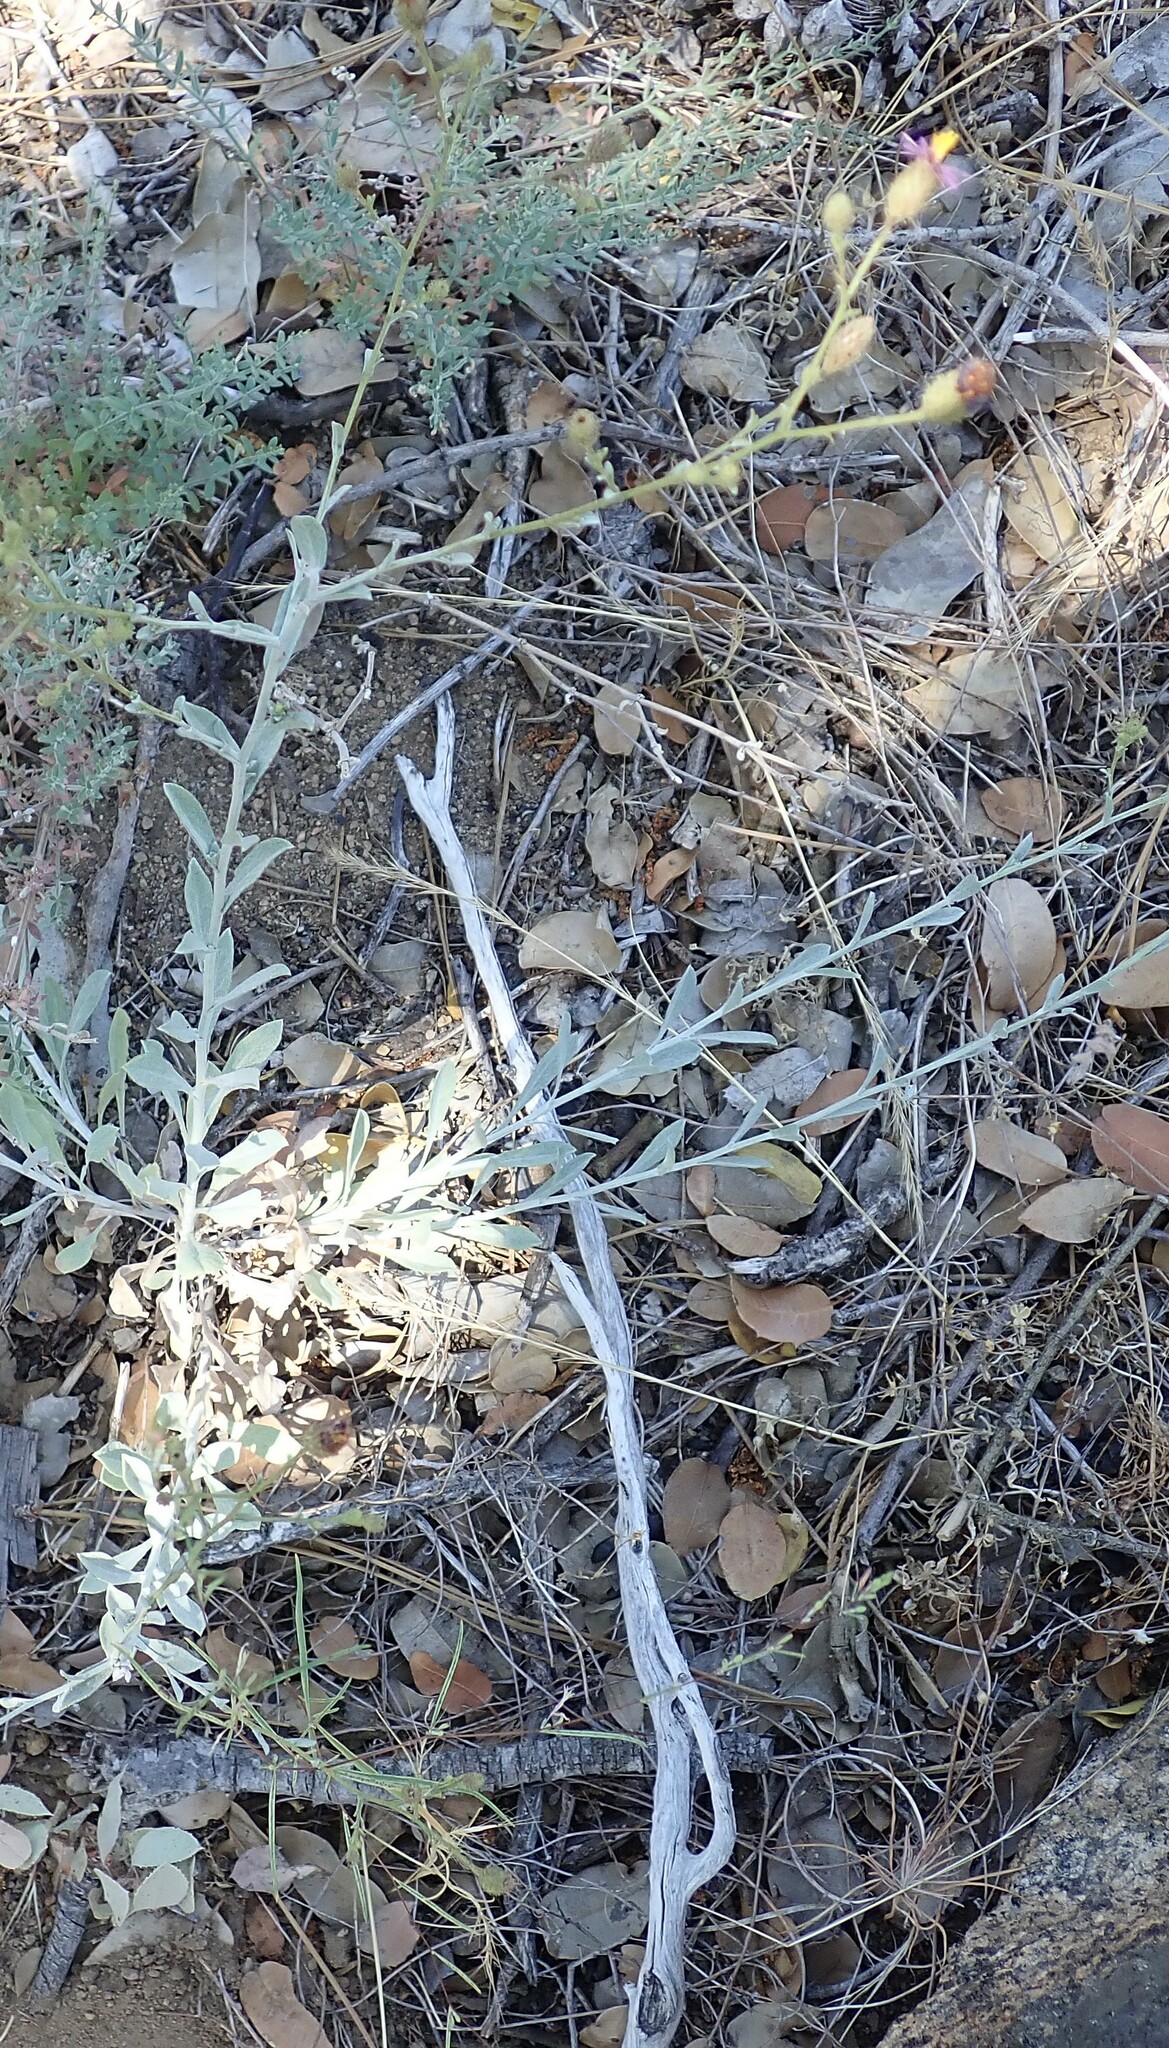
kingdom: Plantae
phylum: Tracheophyta
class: Magnoliopsida
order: Asterales
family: Asteraceae
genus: Corethrogyne
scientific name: Corethrogyne filaginifolia
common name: Sand-aster
